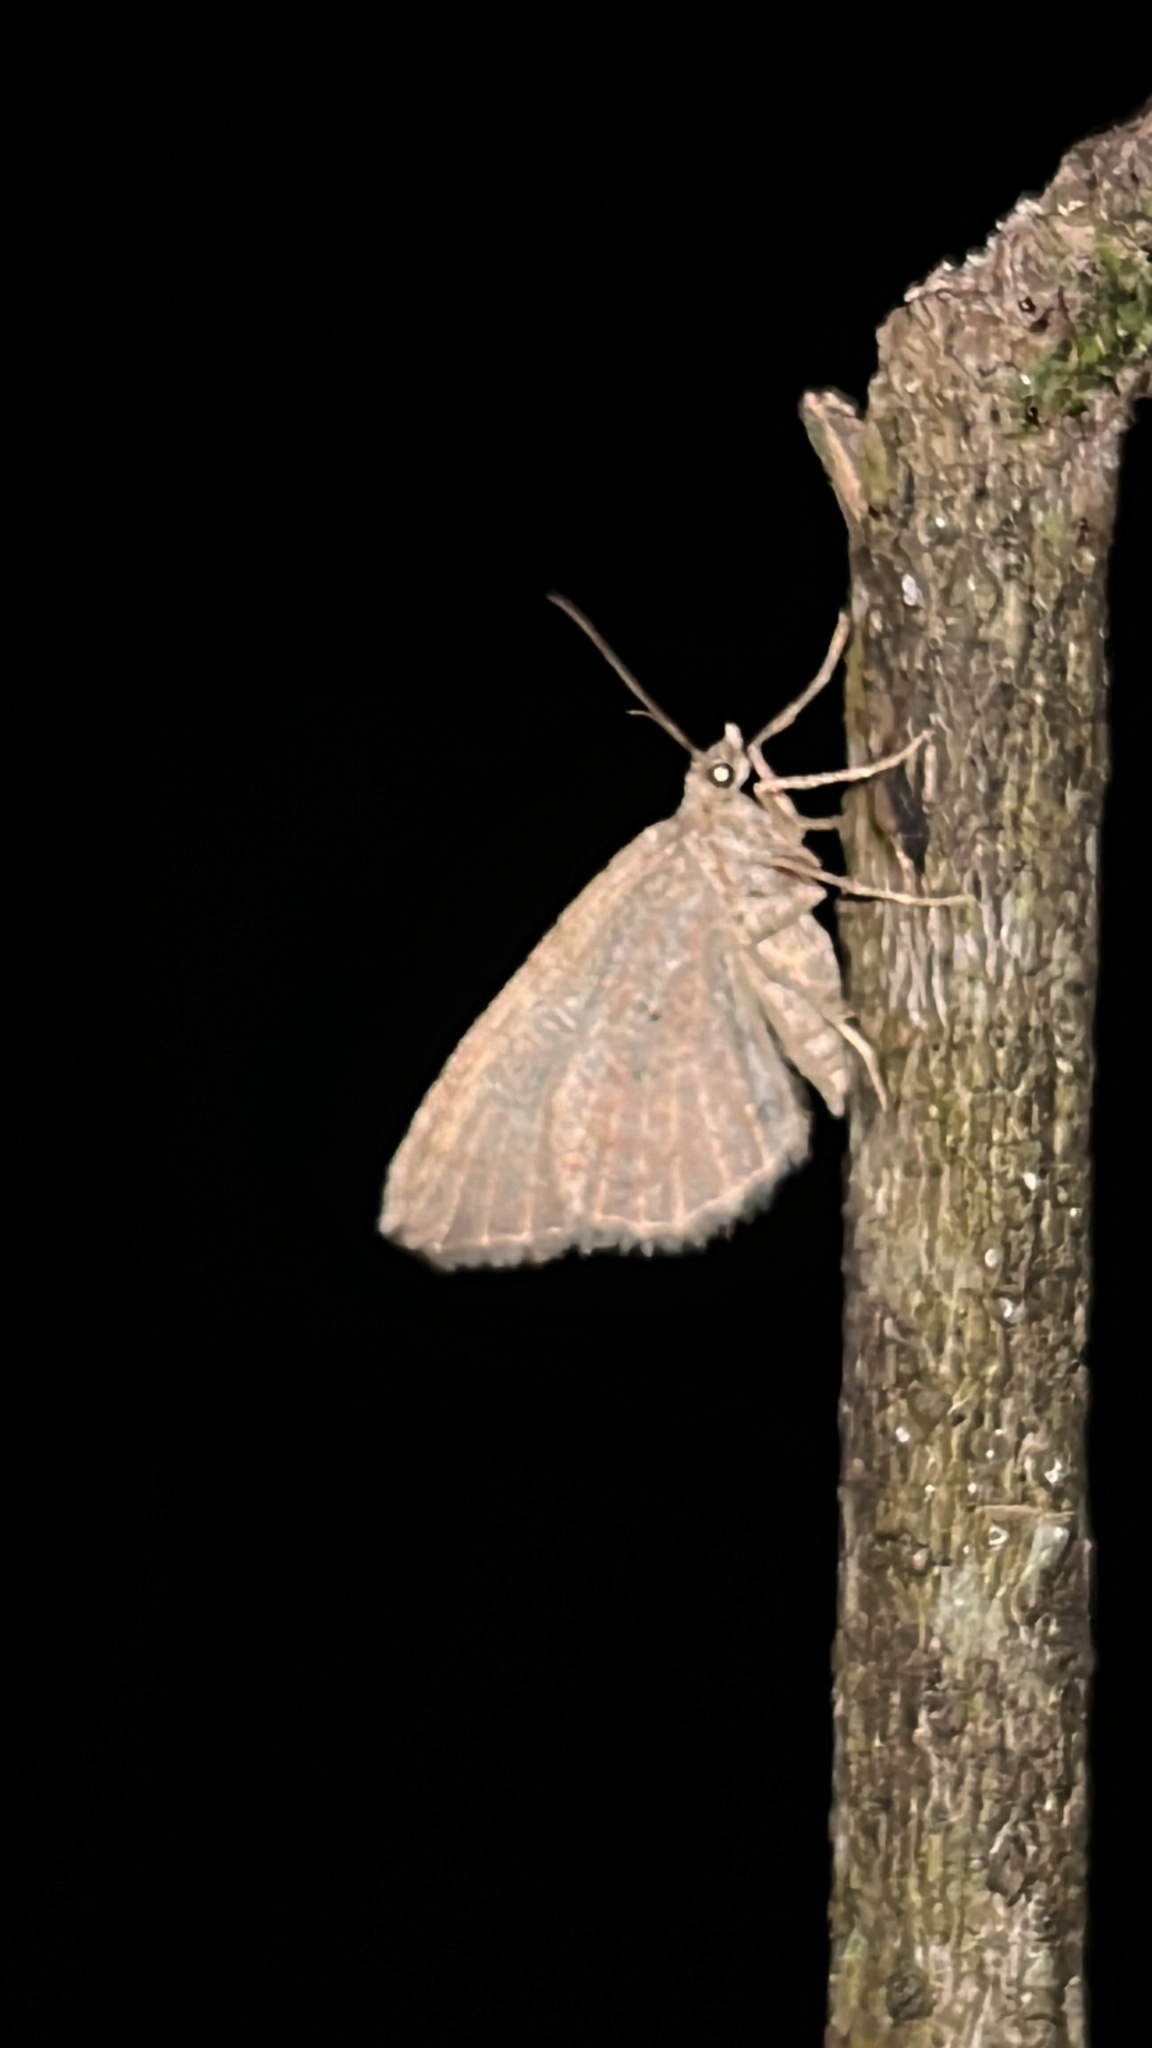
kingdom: Animalia
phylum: Arthropoda
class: Insecta
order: Lepidoptera
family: Geometridae
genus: Epyaxa
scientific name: Epyaxa rosearia
